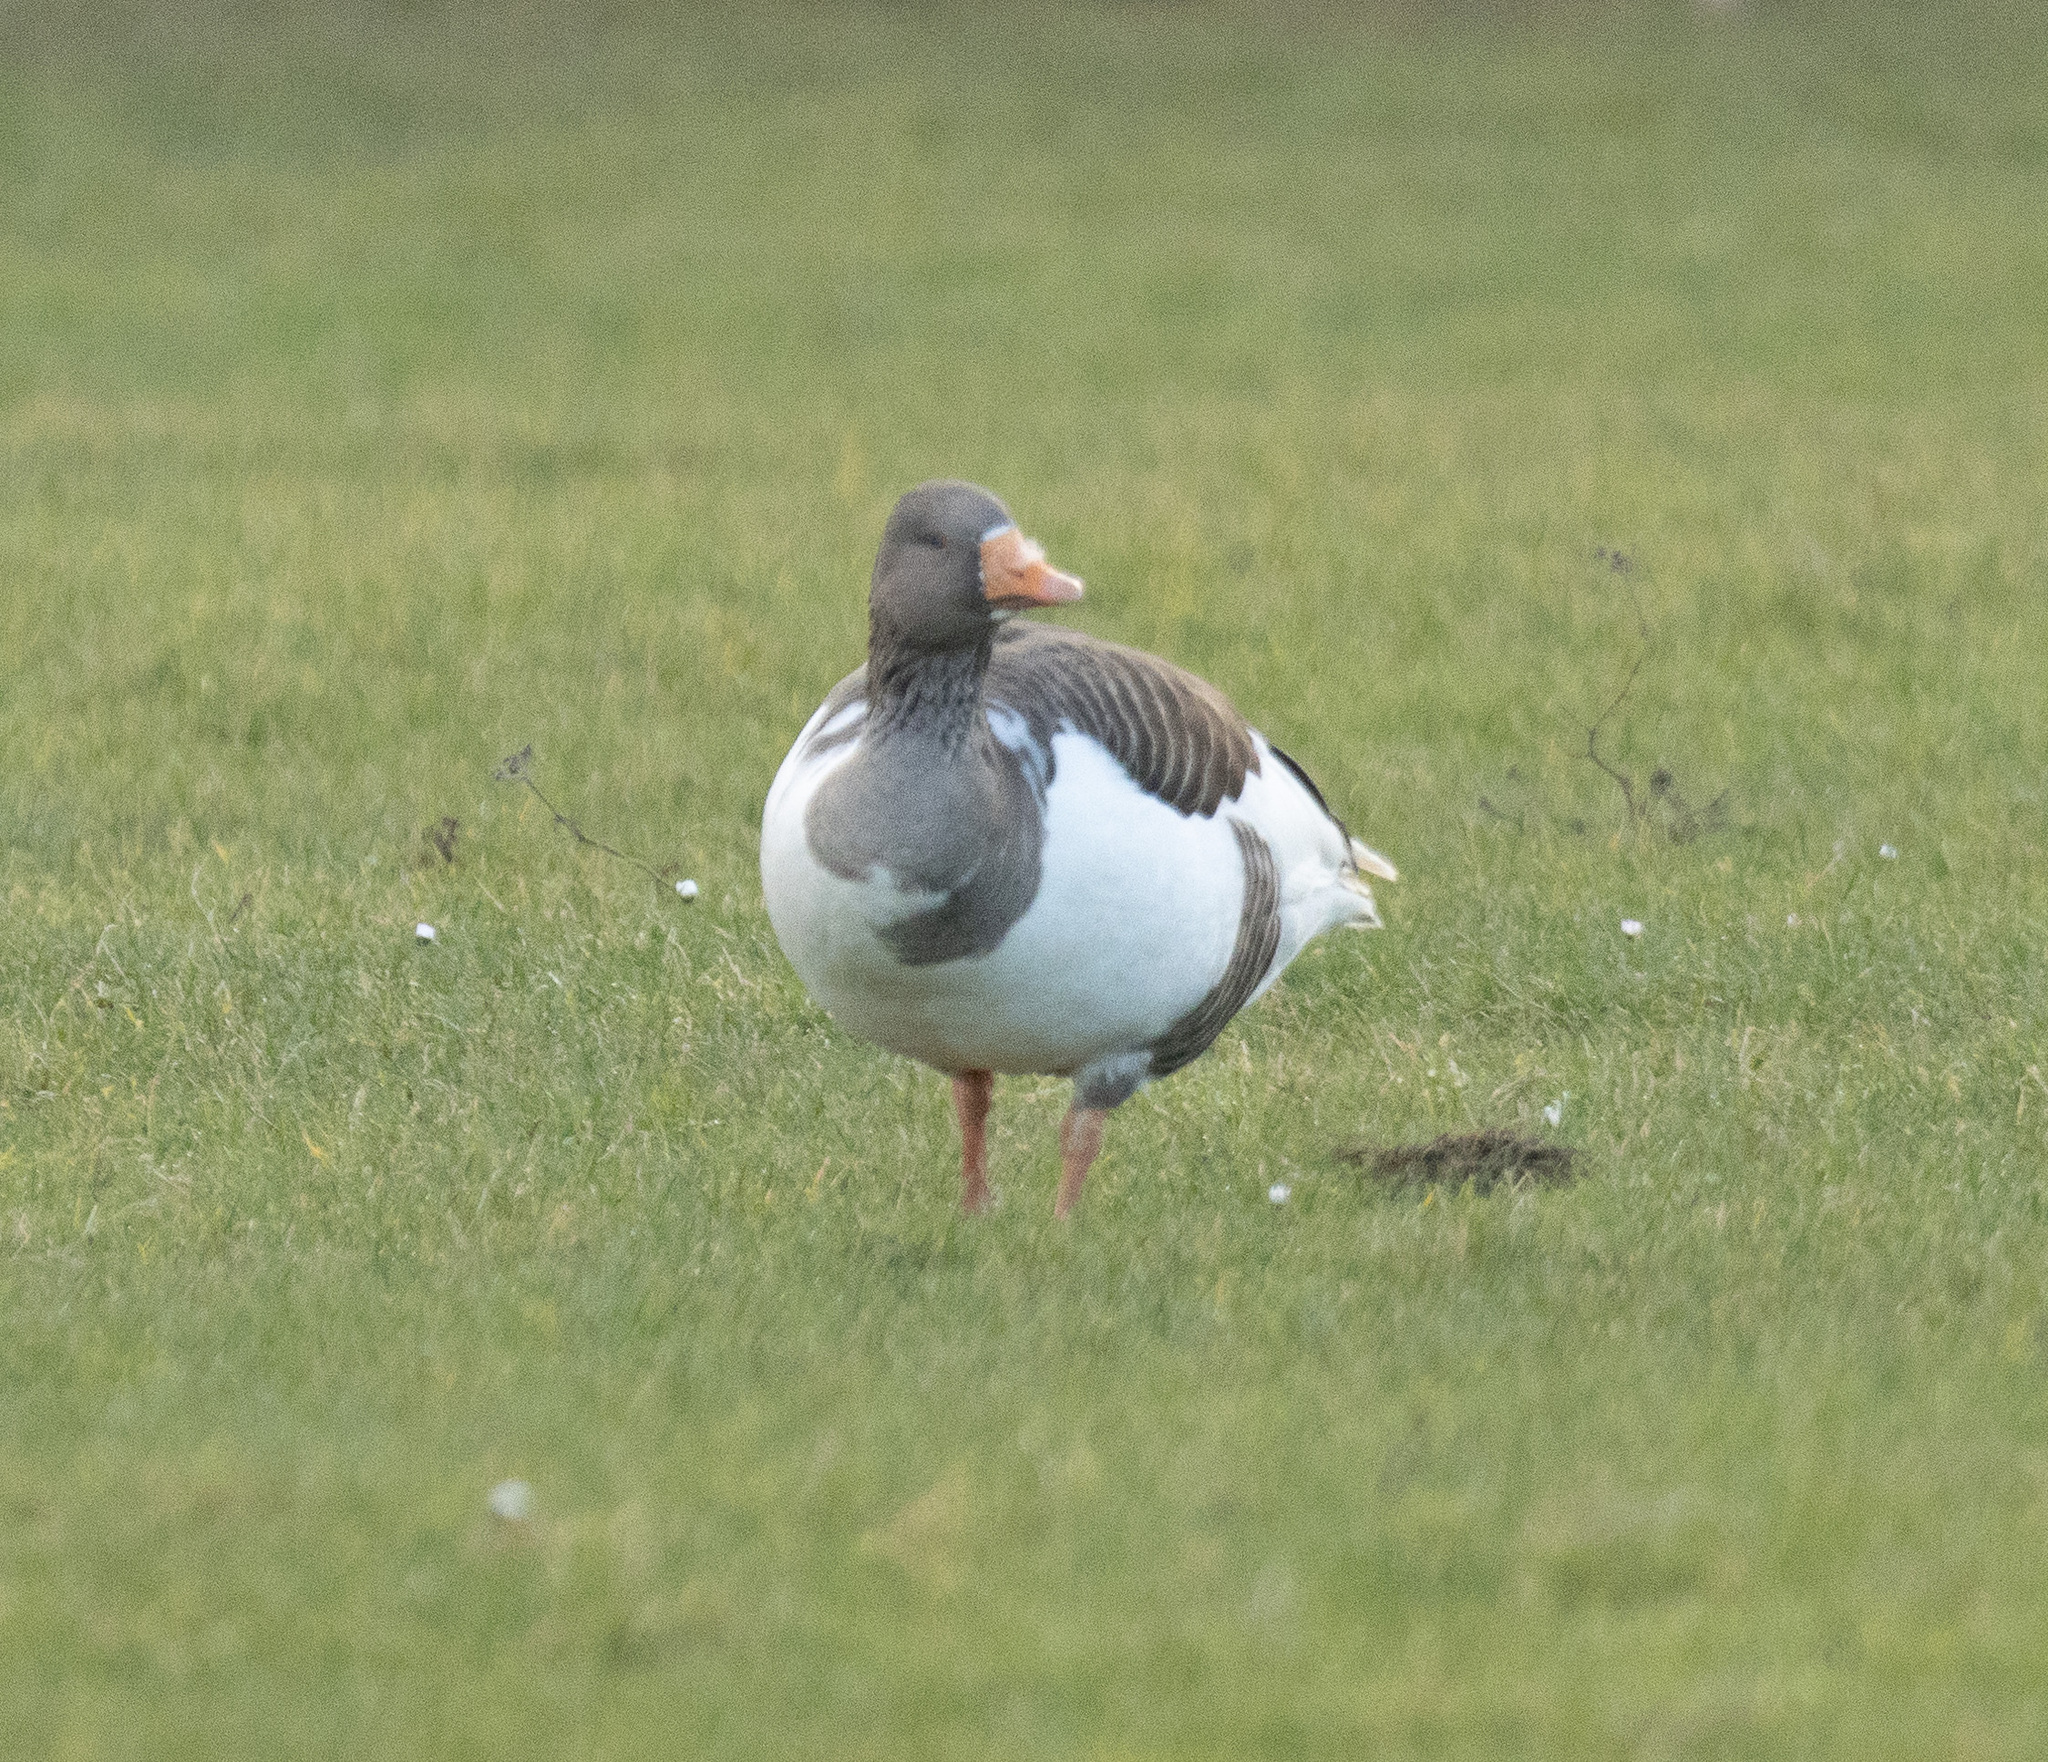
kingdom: Animalia
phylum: Chordata
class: Aves
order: Anseriformes
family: Anatidae
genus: Anser
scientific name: Anser anser
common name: Greylag goose
